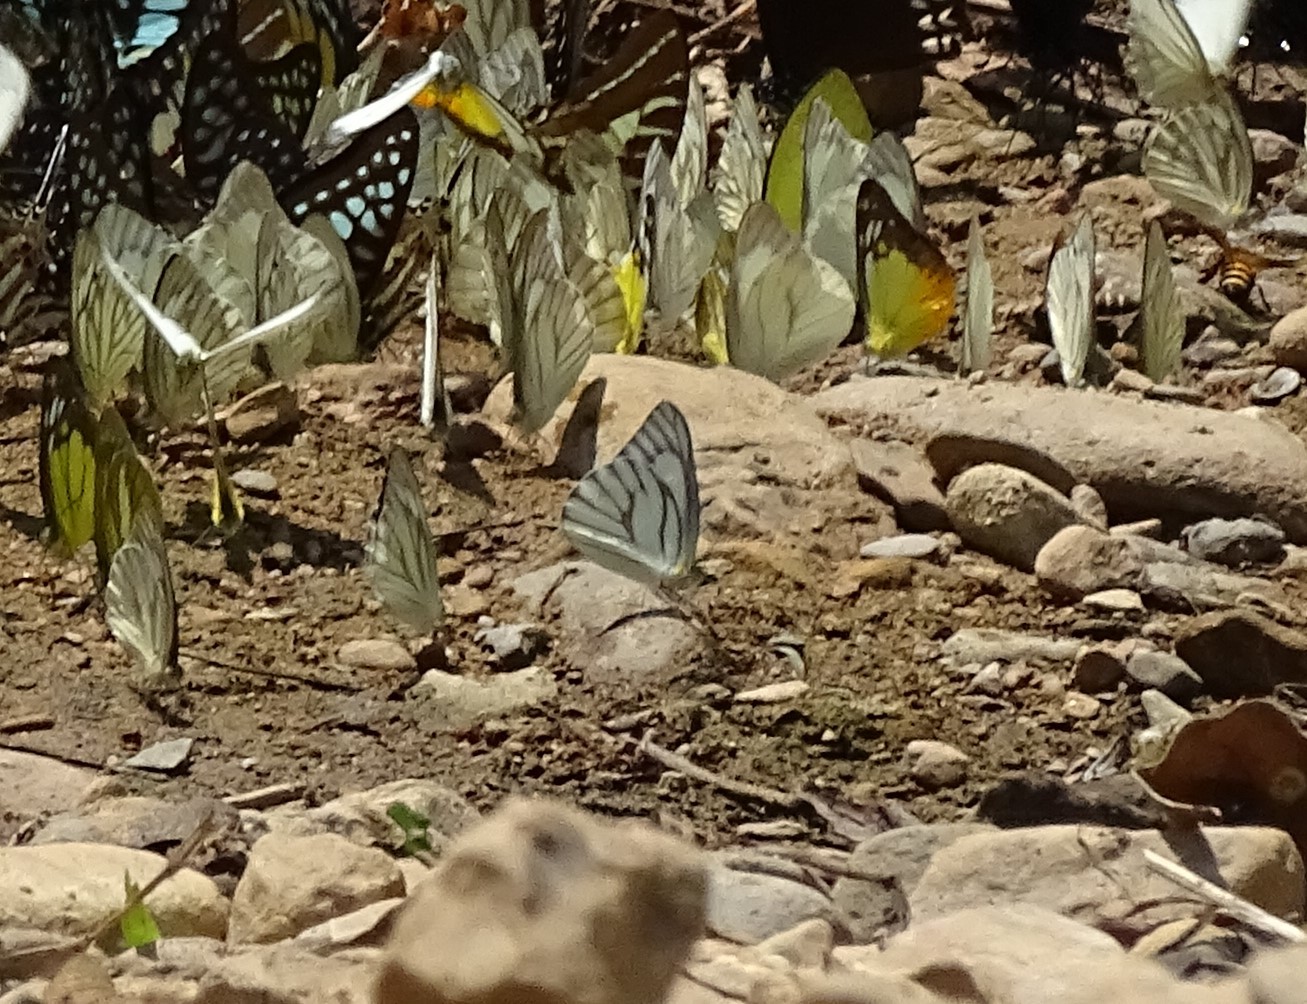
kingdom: Animalia
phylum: Arthropoda
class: Insecta
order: Lepidoptera
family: Pieridae
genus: Appias
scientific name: Appias libythea
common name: Striped albatross
